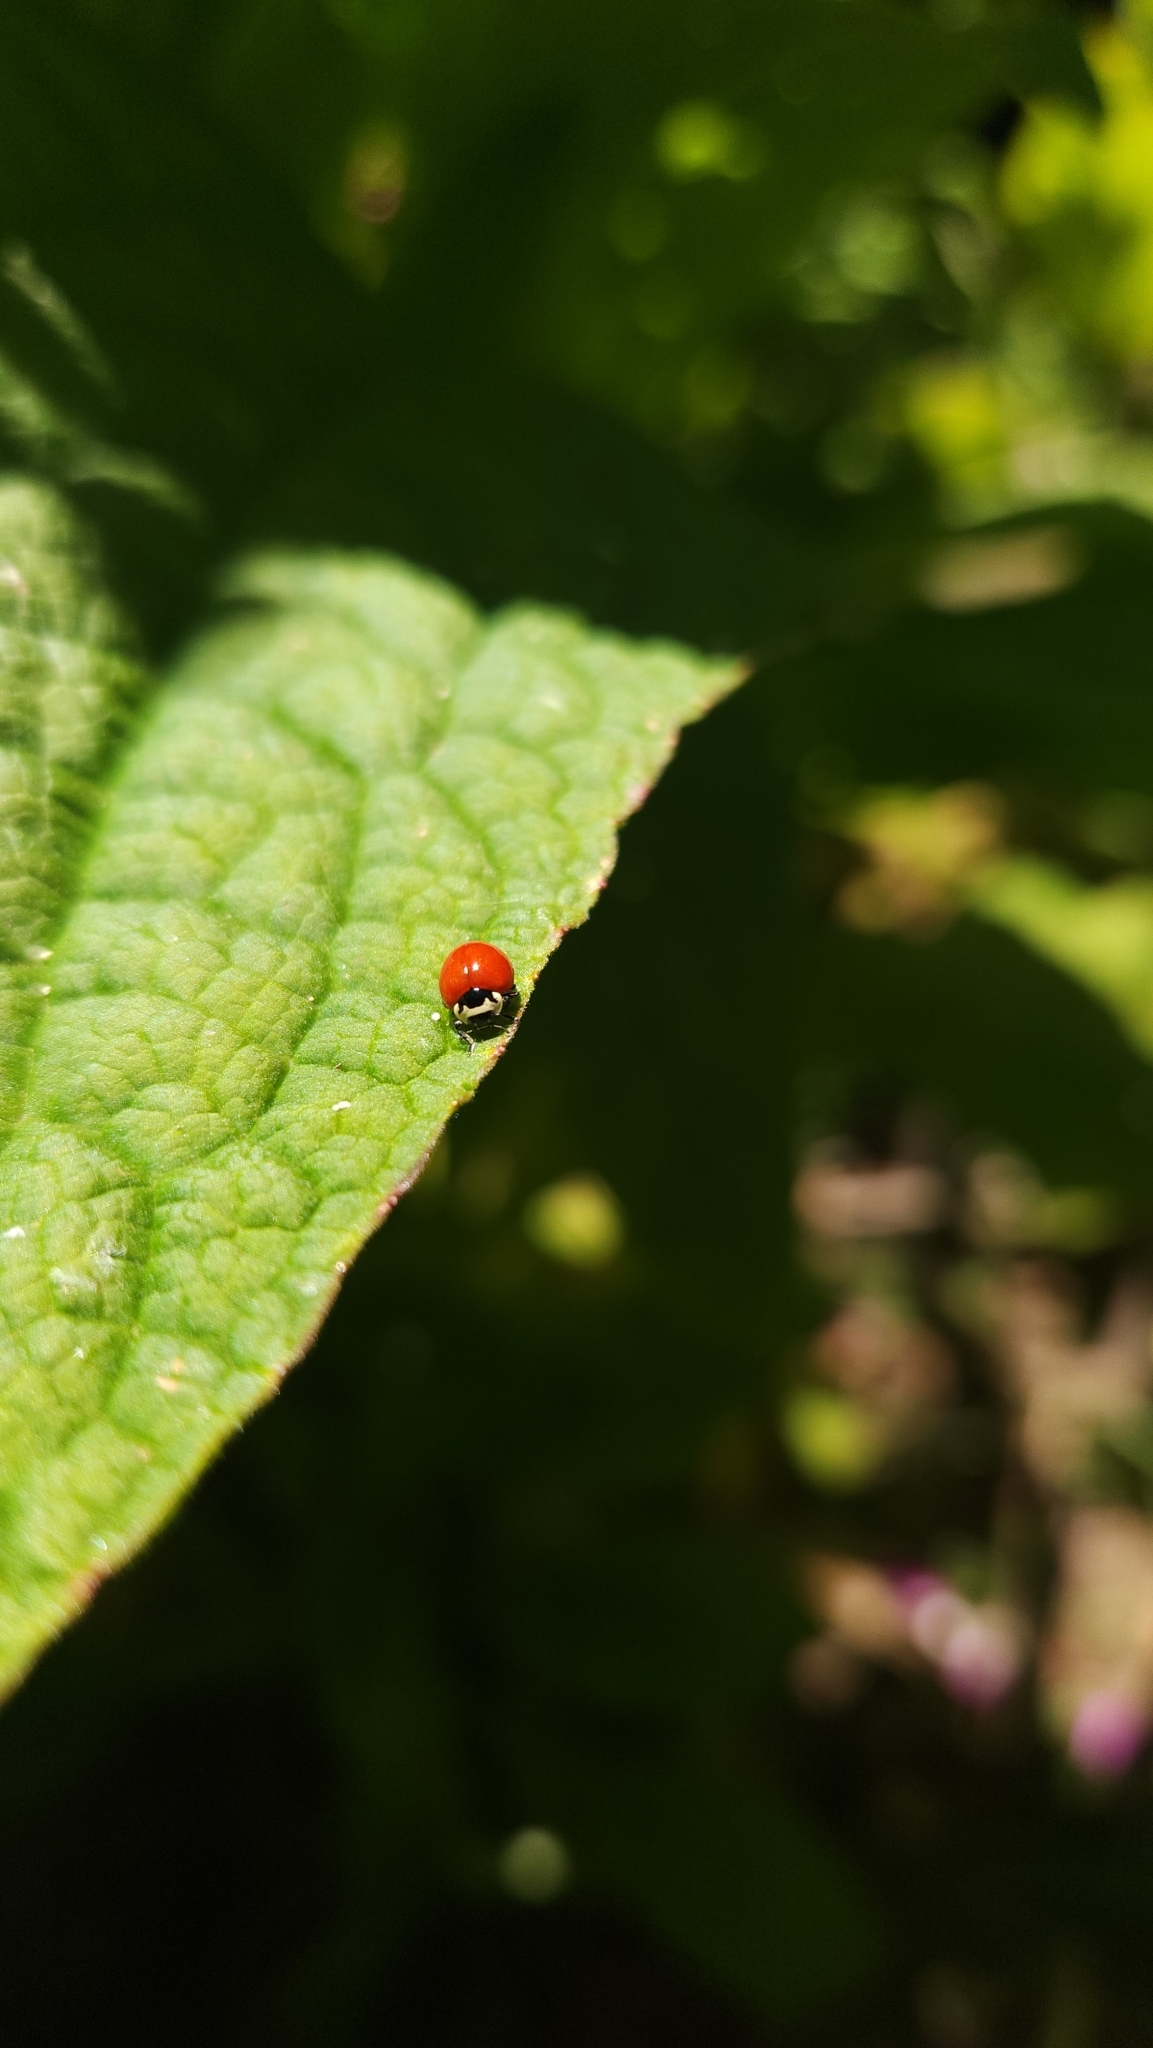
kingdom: Animalia
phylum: Arthropoda
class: Insecta
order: Coleoptera
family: Coccinellidae
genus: Cycloneda
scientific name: Cycloneda
